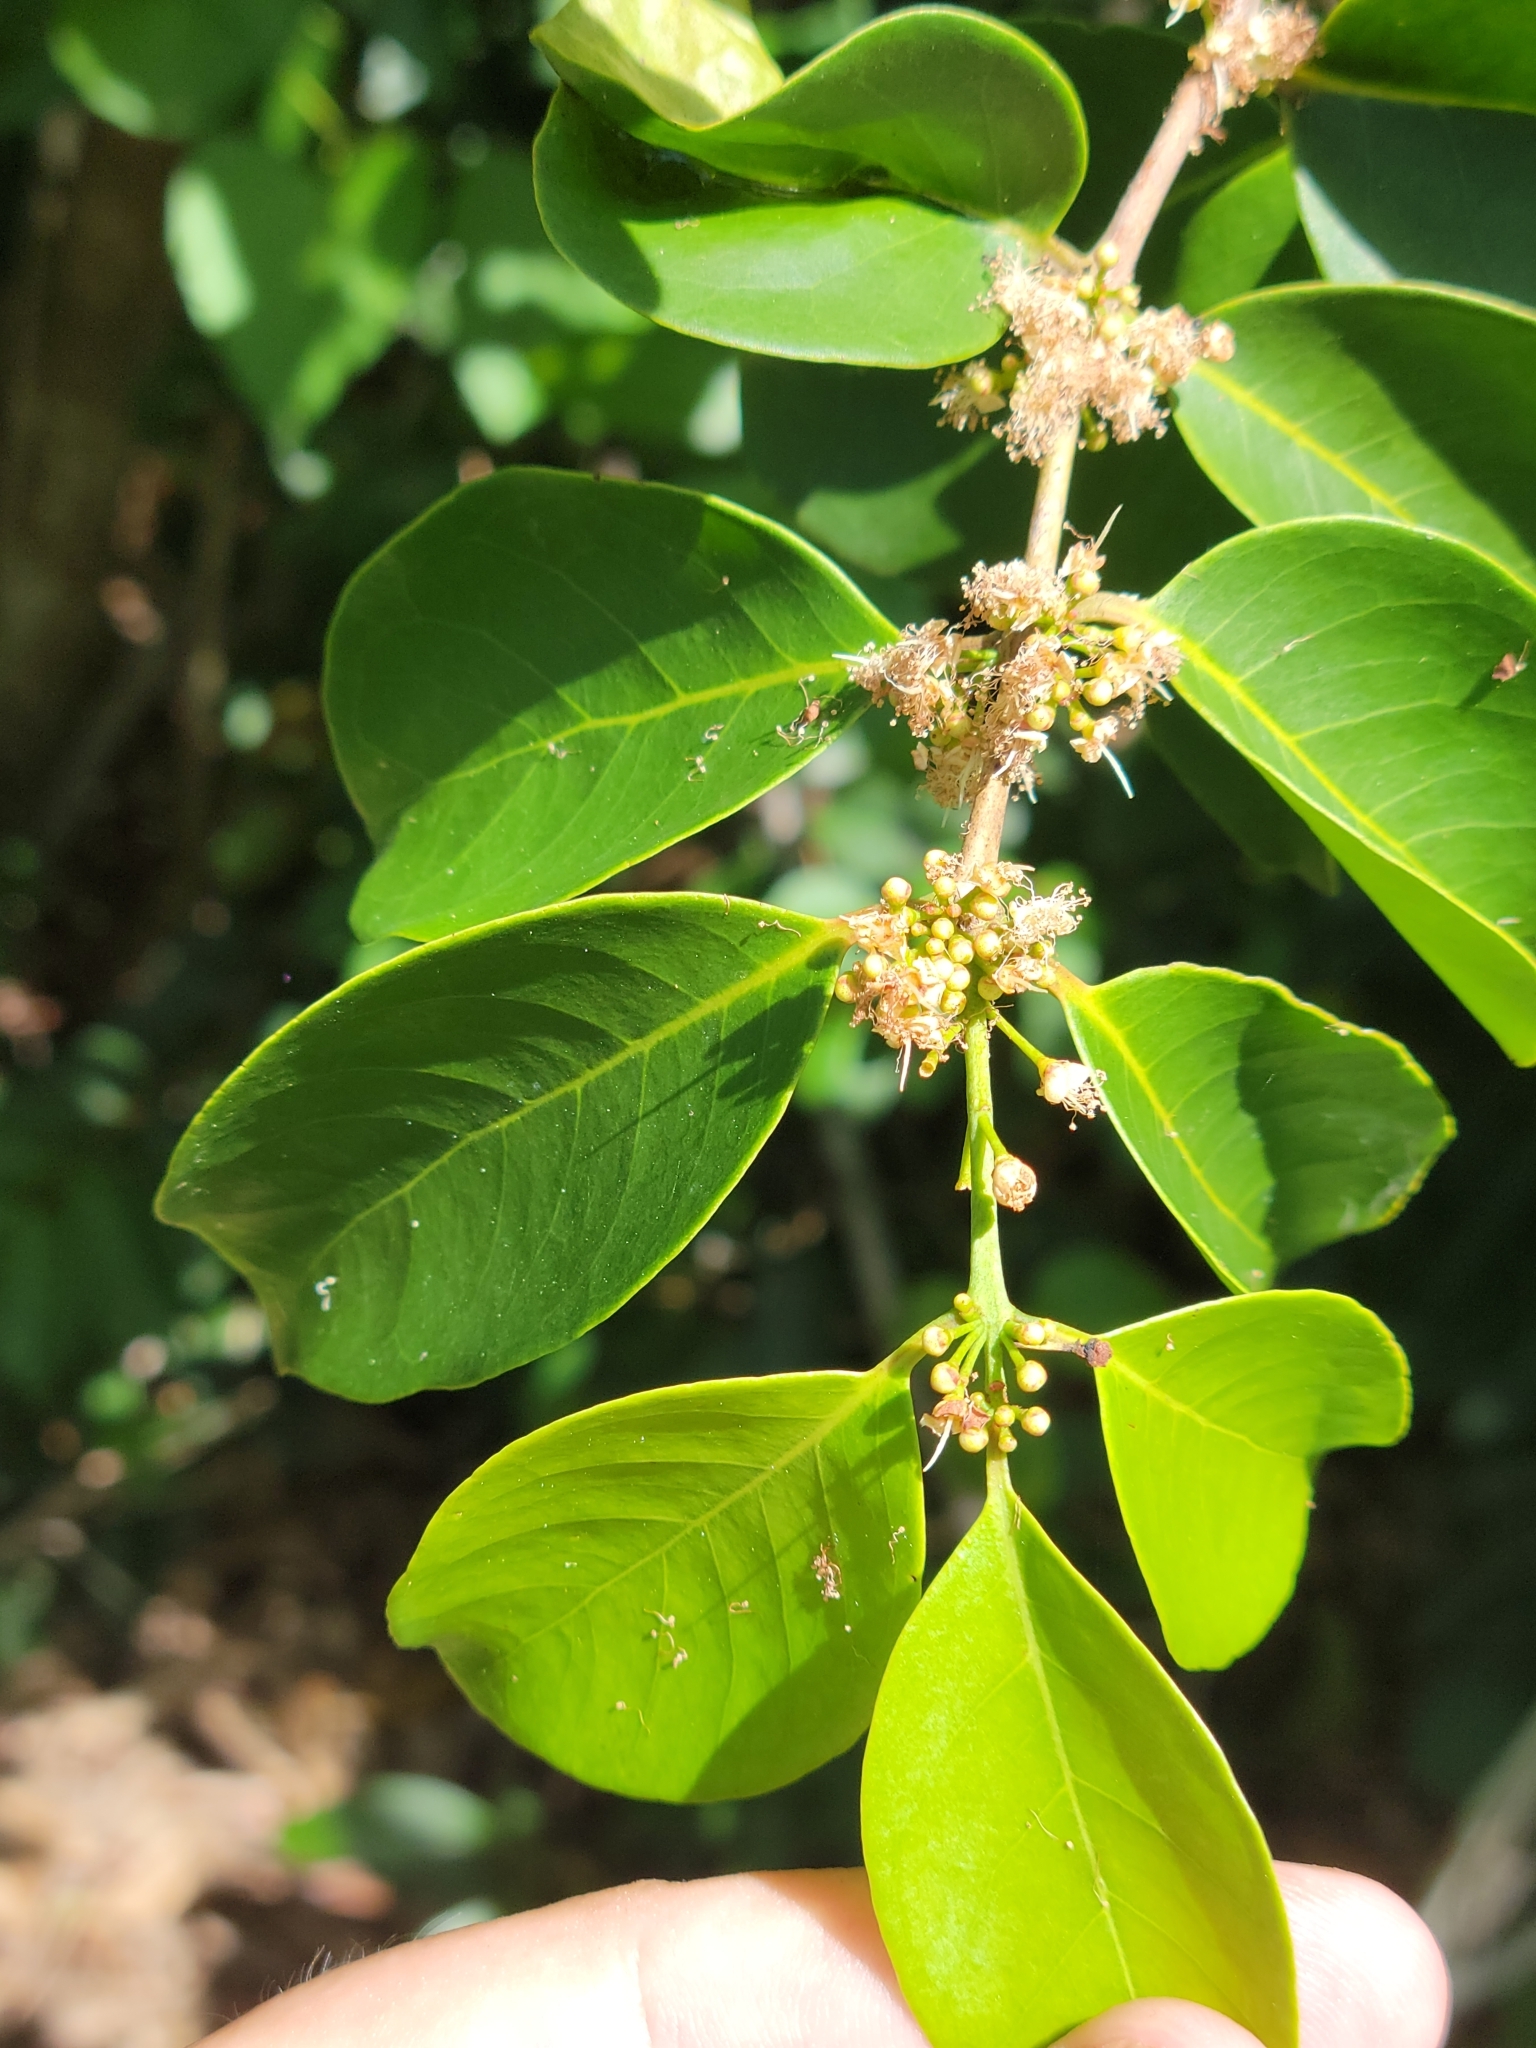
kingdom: Plantae
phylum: Tracheophyta
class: Magnoliopsida
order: Myrtales
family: Myrtaceae
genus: Eugenia
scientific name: Eugenia axillaris
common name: Choaky berry
